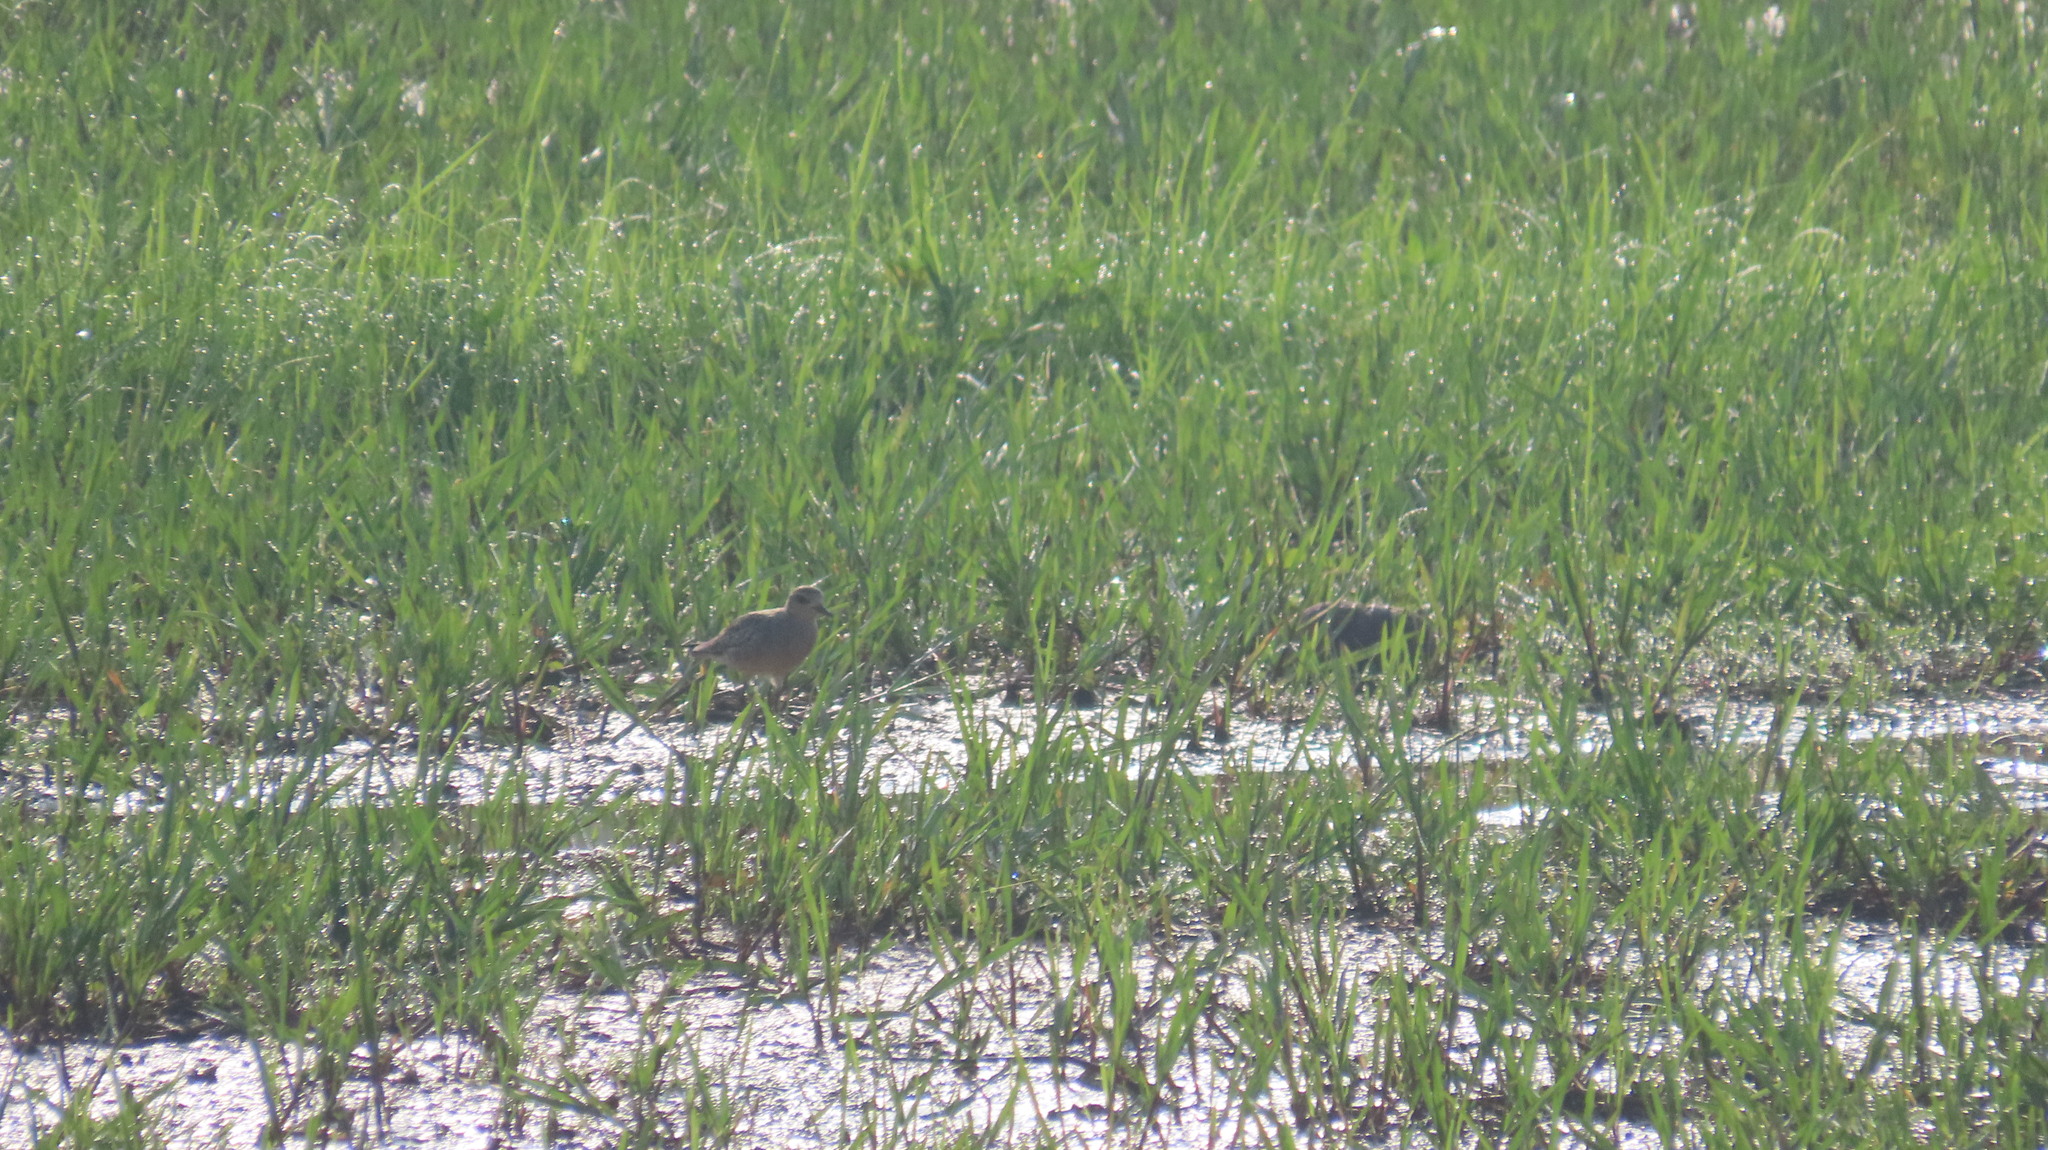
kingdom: Animalia
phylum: Chordata
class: Aves
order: Charadriiformes
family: Charadriidae
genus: Pluvialis
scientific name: Pluvialis fulva
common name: Pacific golden plover
